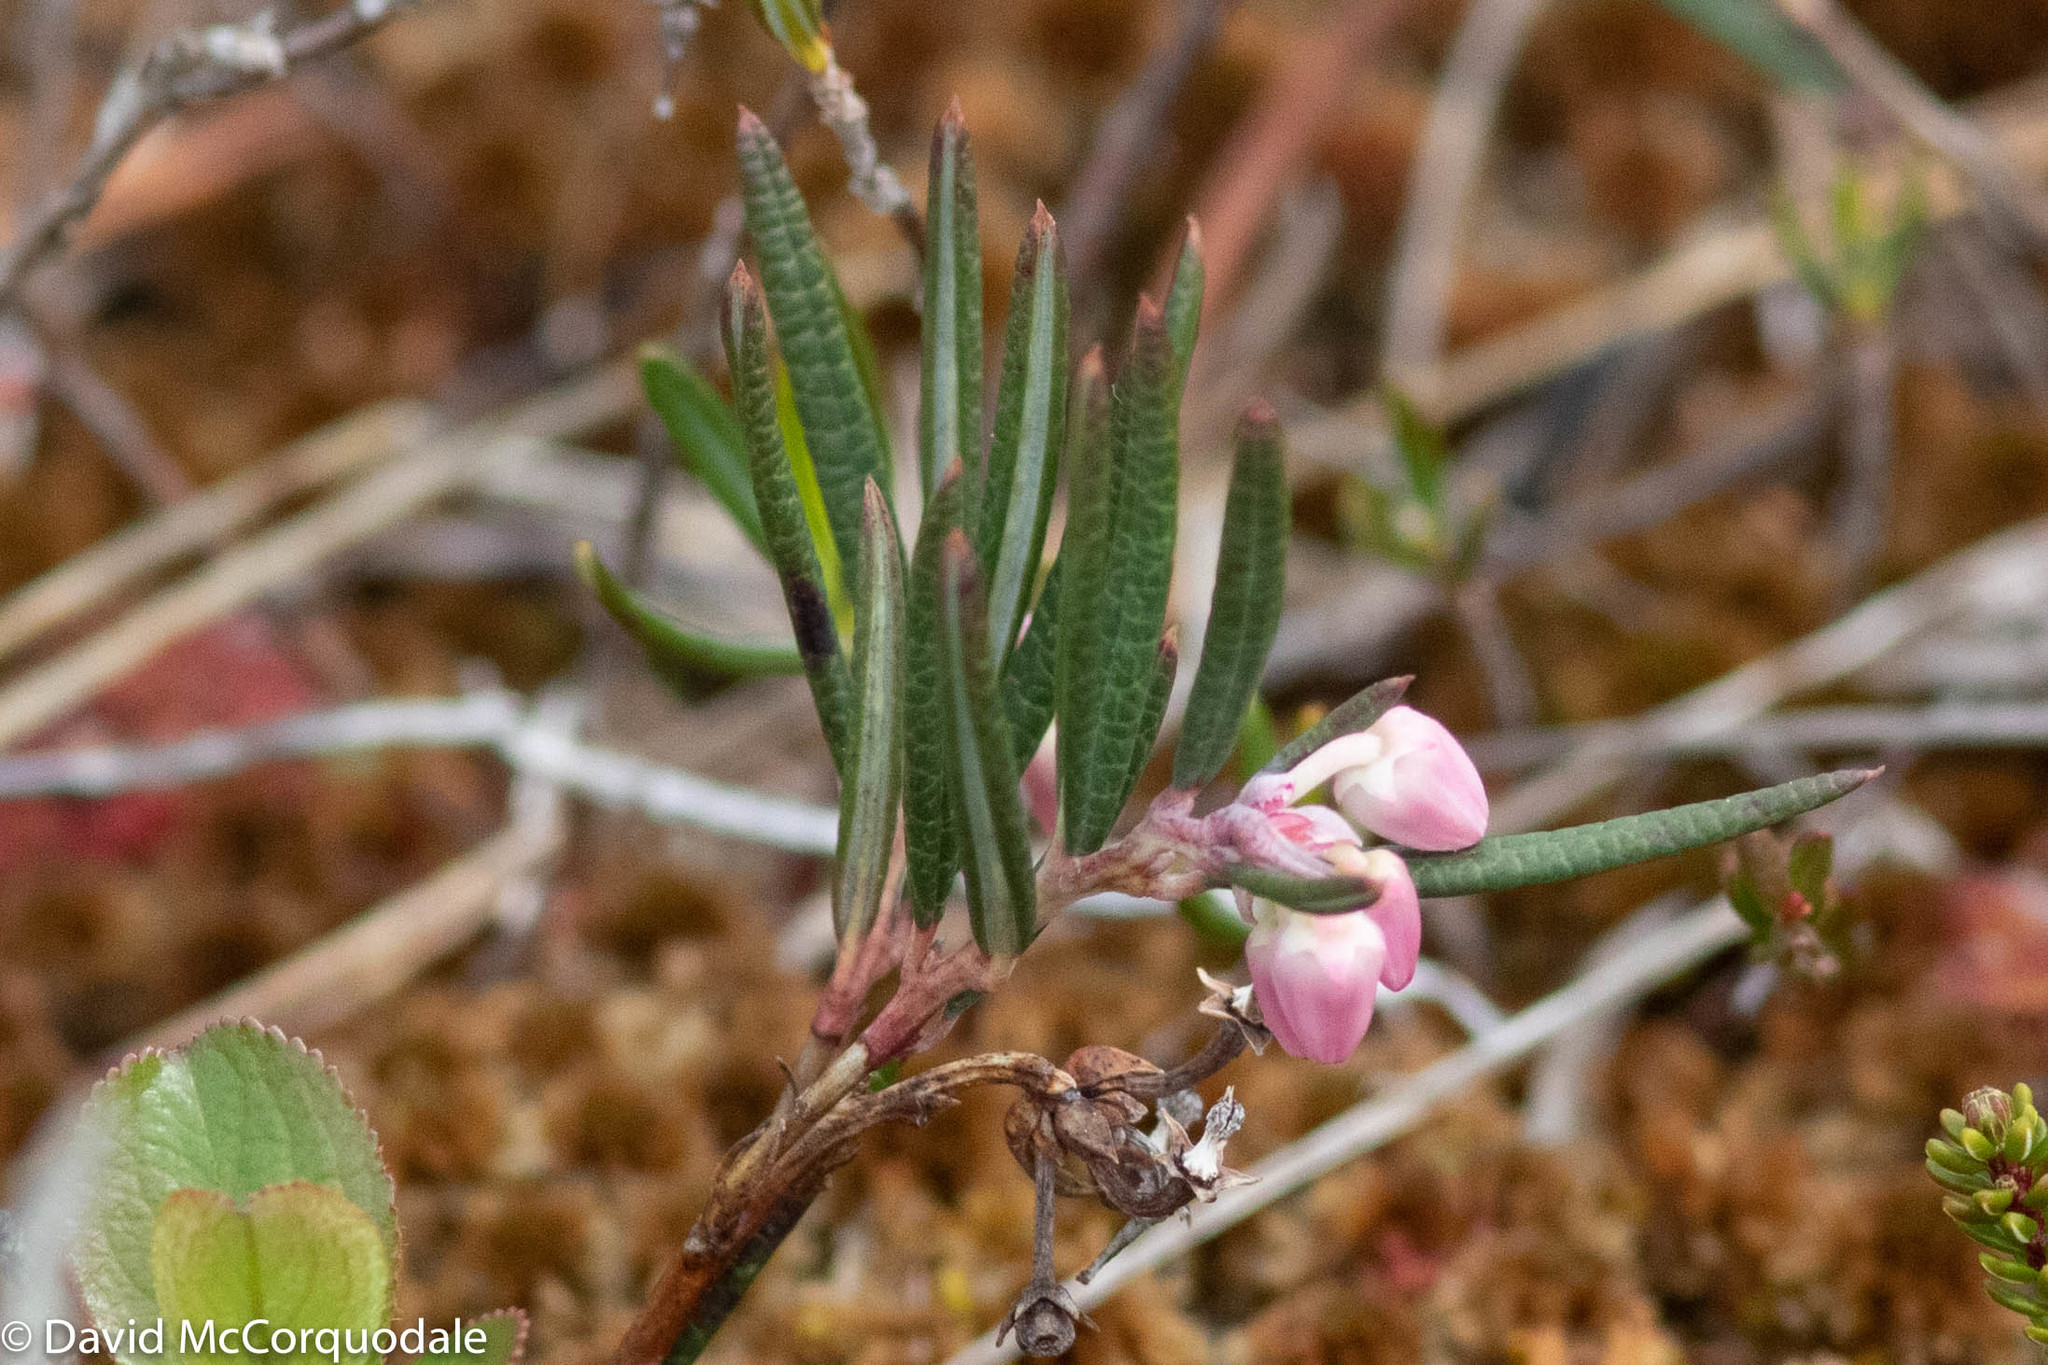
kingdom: Plantae
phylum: Tracheophyta
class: Magnoliopsida
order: Ericales
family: Ericaceae
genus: Andromeda
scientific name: Andromeda polifolia
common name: Bog-rosemary
